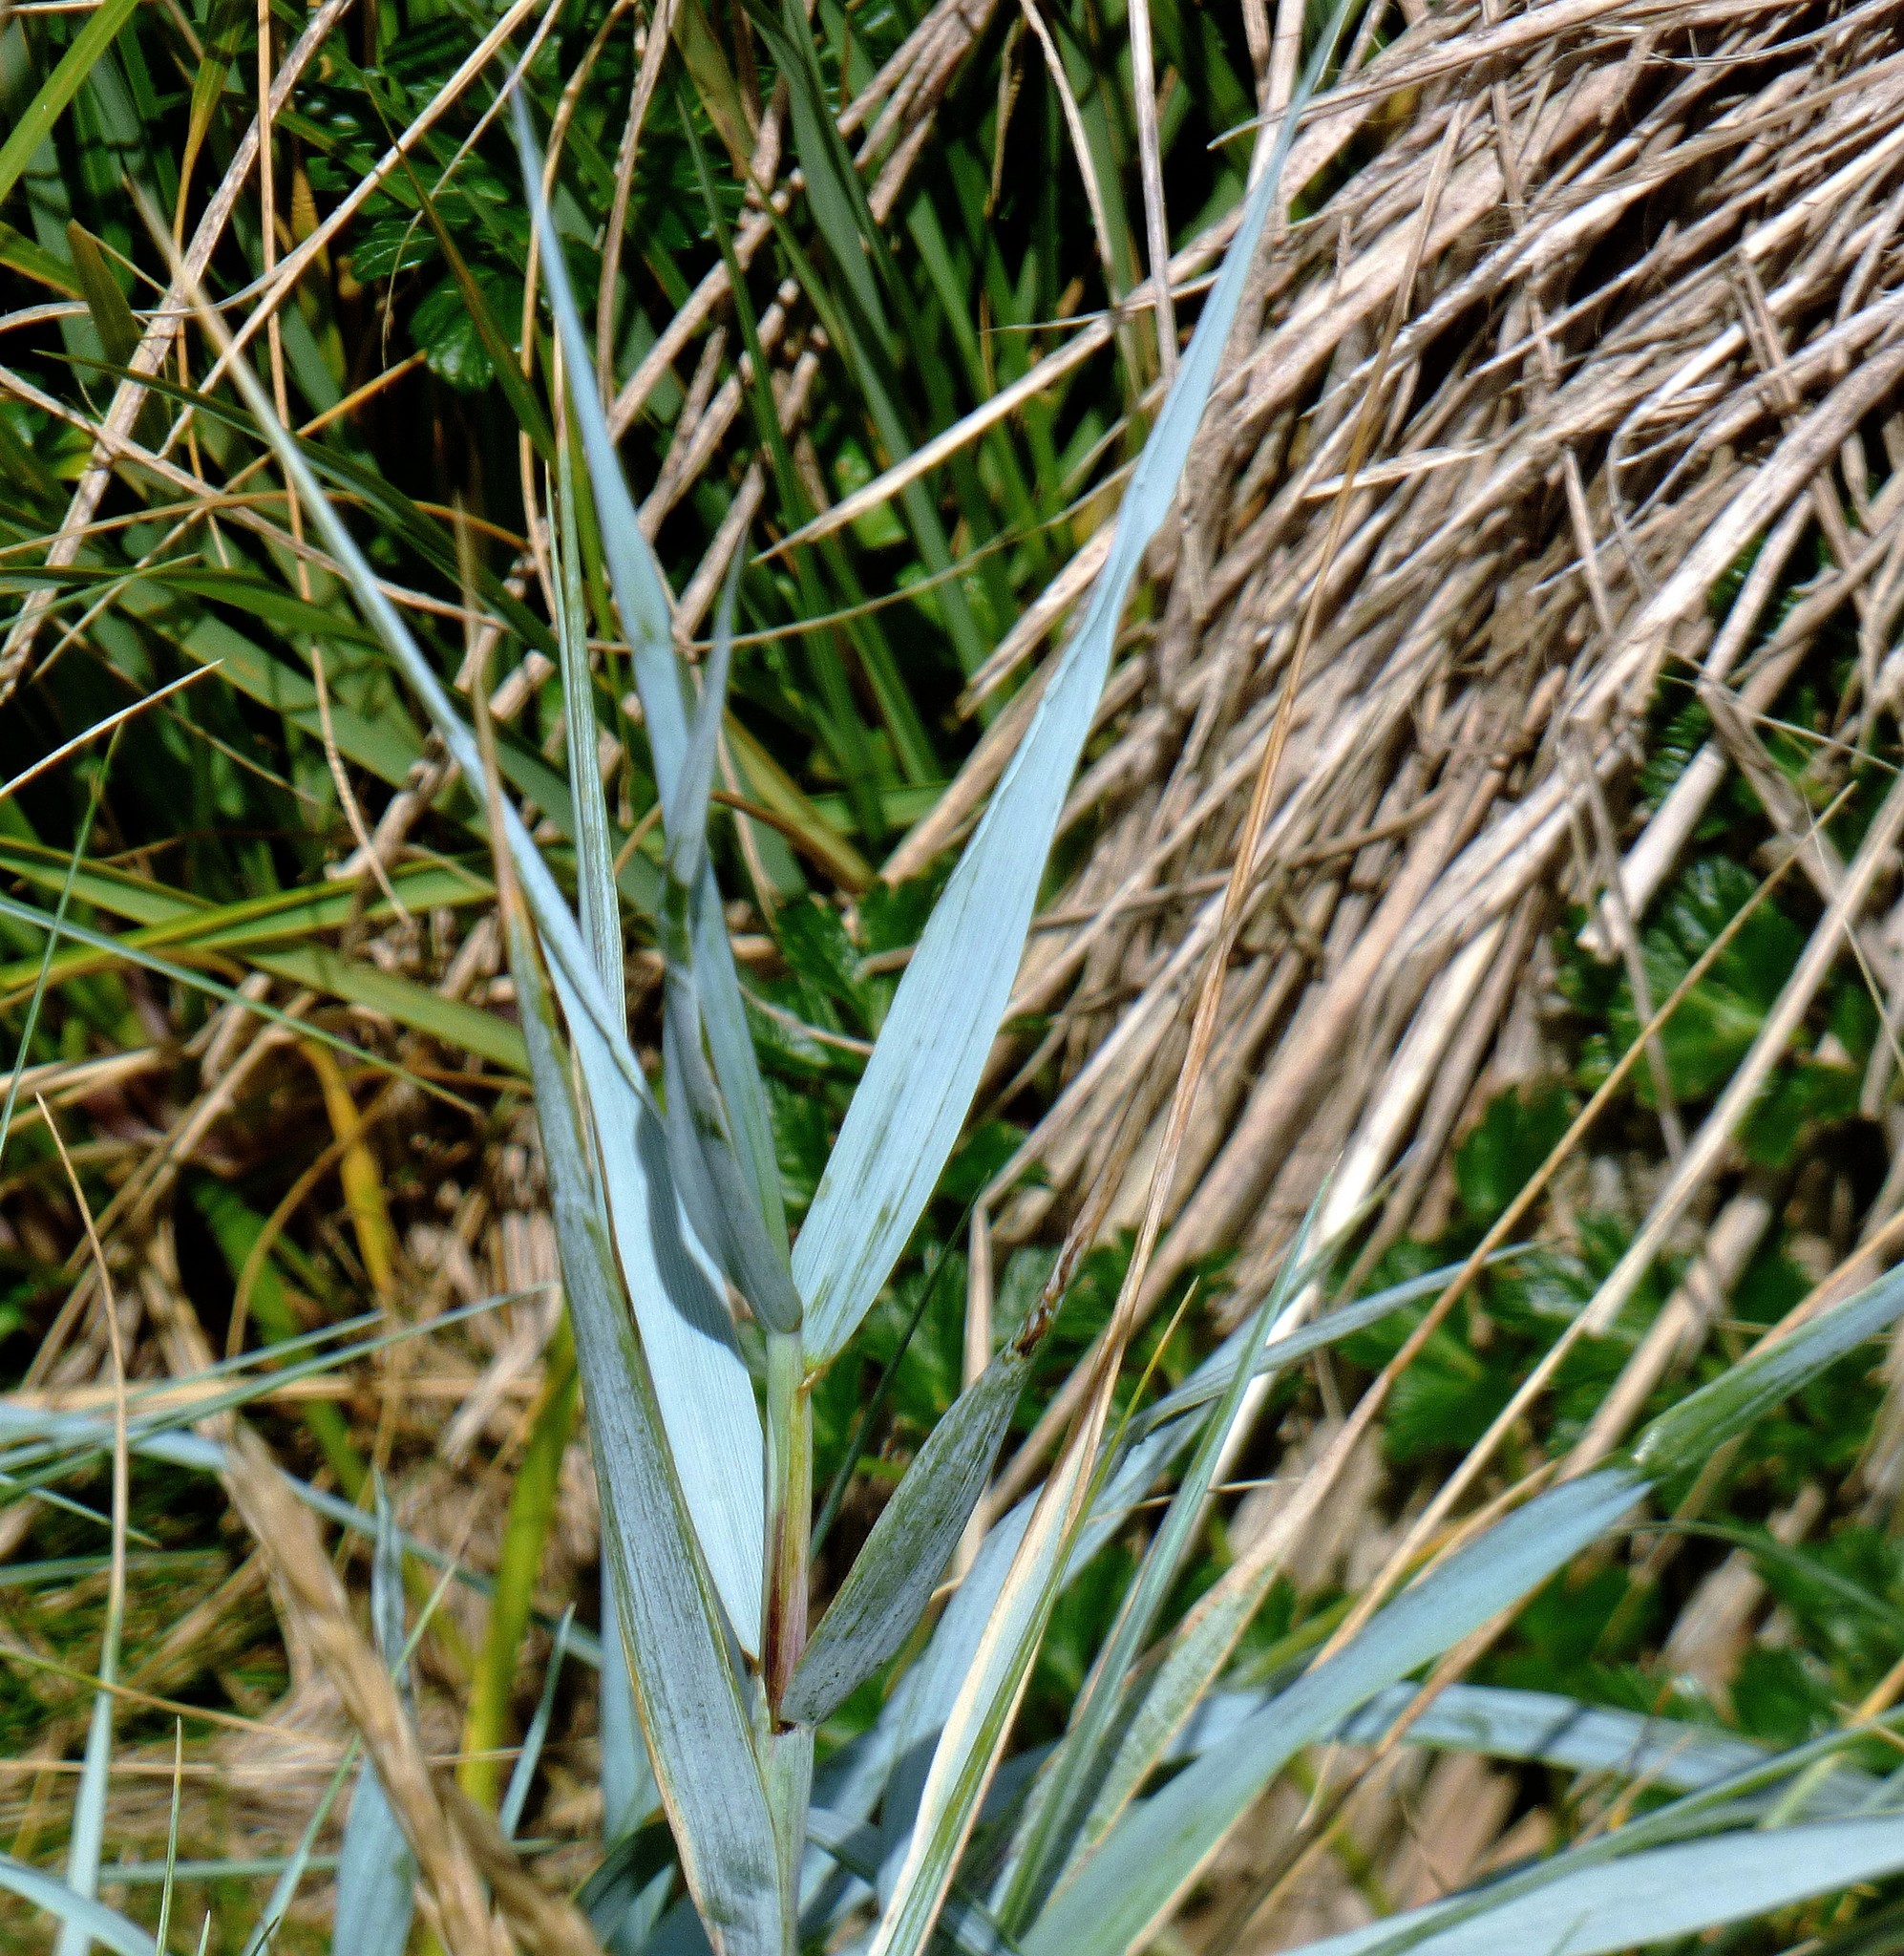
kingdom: Plantae
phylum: Tracheophyta
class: Liliopsida
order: Poales
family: Poaceae
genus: Elymus
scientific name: Elymus magellanicus
